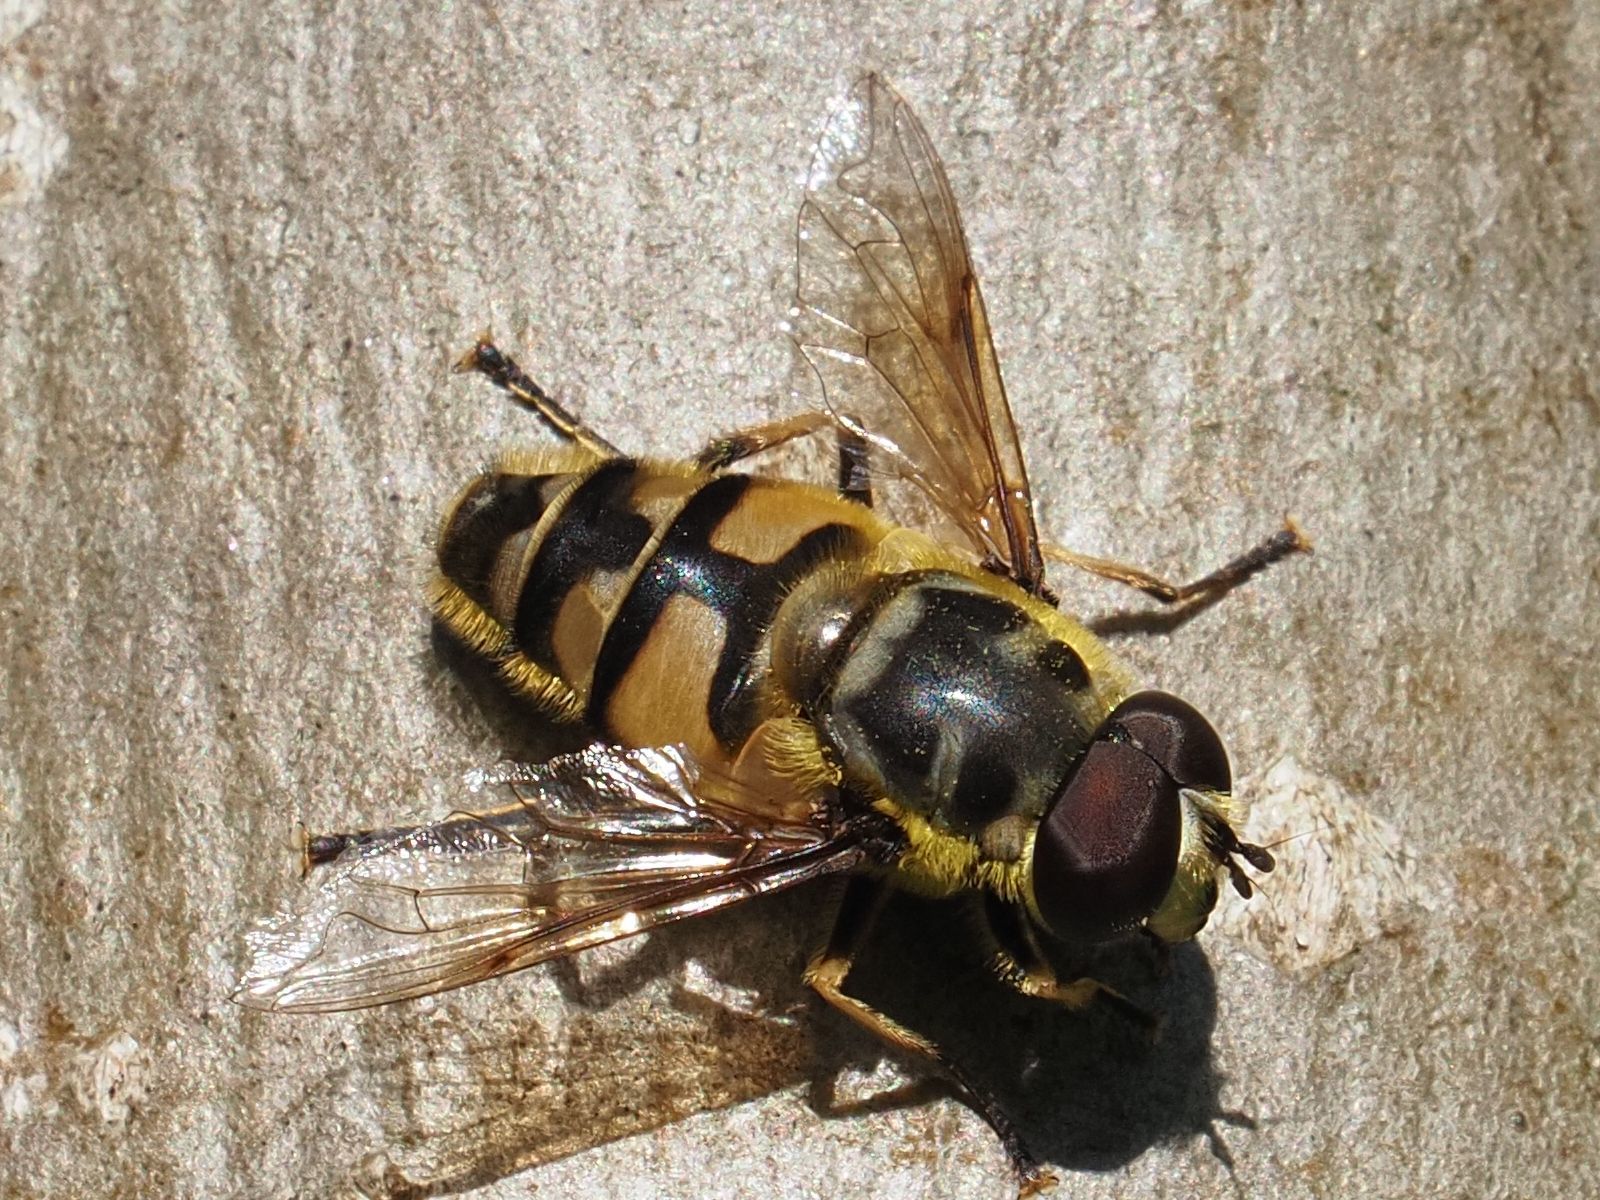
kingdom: Animalia
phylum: Arthropoda
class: Insecta
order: Diptera
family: Syrphidae
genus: Myathropa
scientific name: Myathropa florea
